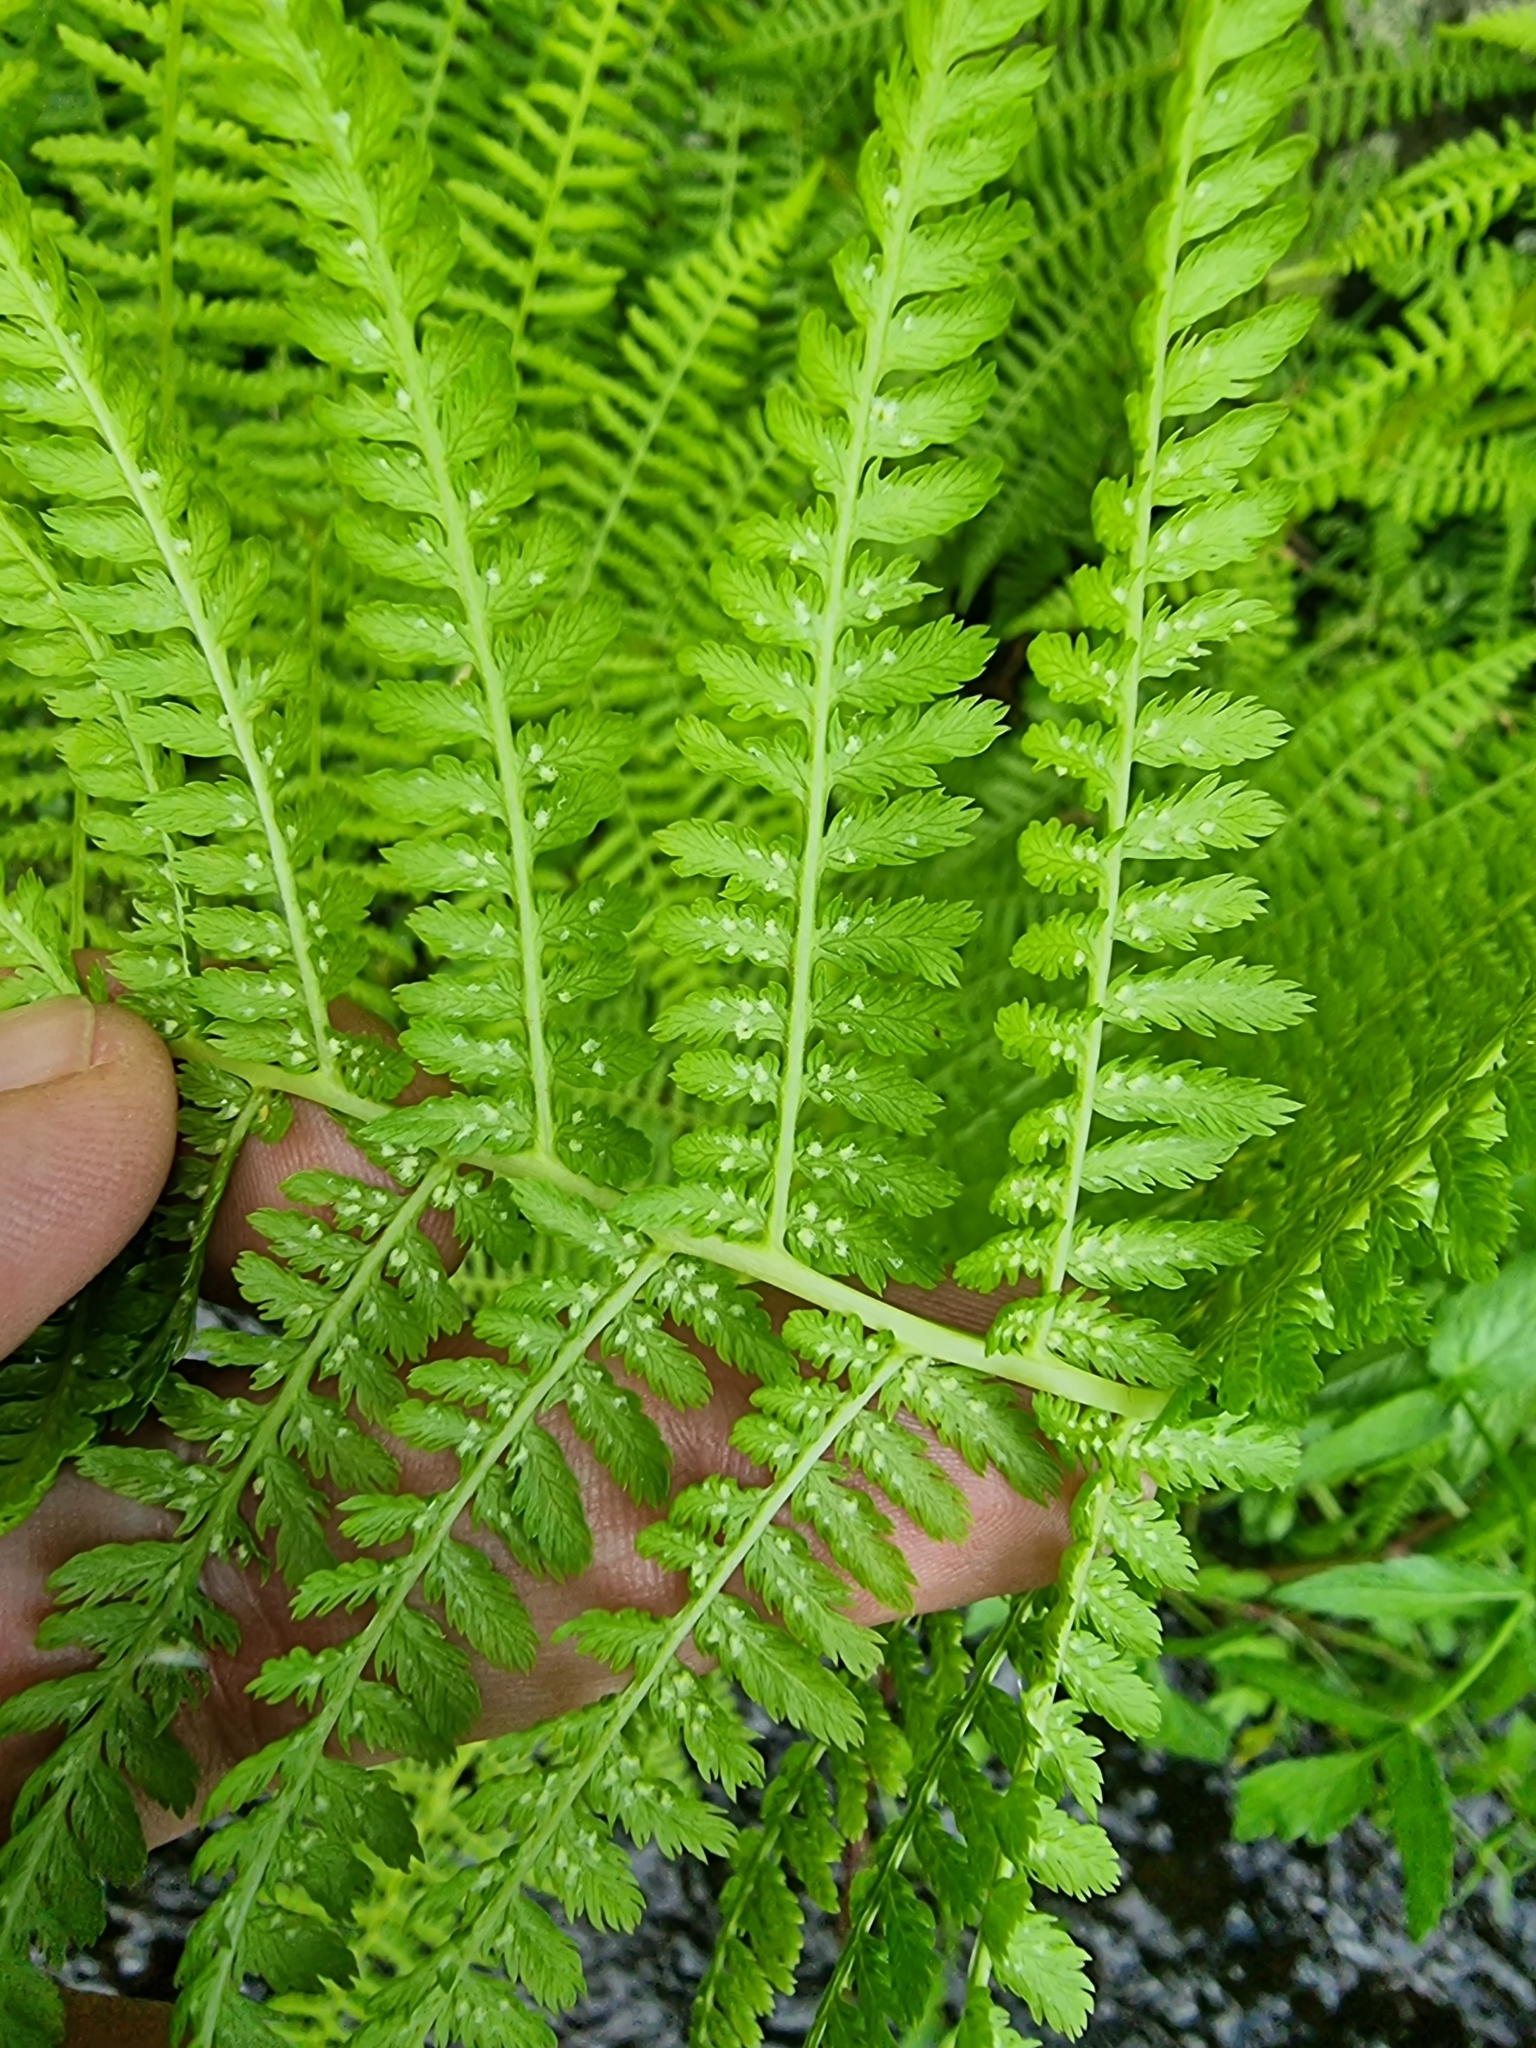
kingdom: Plantae
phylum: Tracheophyta
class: Polypodiopsida
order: Polypodiales
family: Athyriaceae
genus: Athyrium
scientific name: Athyrium filix-femina
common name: Lady fern
